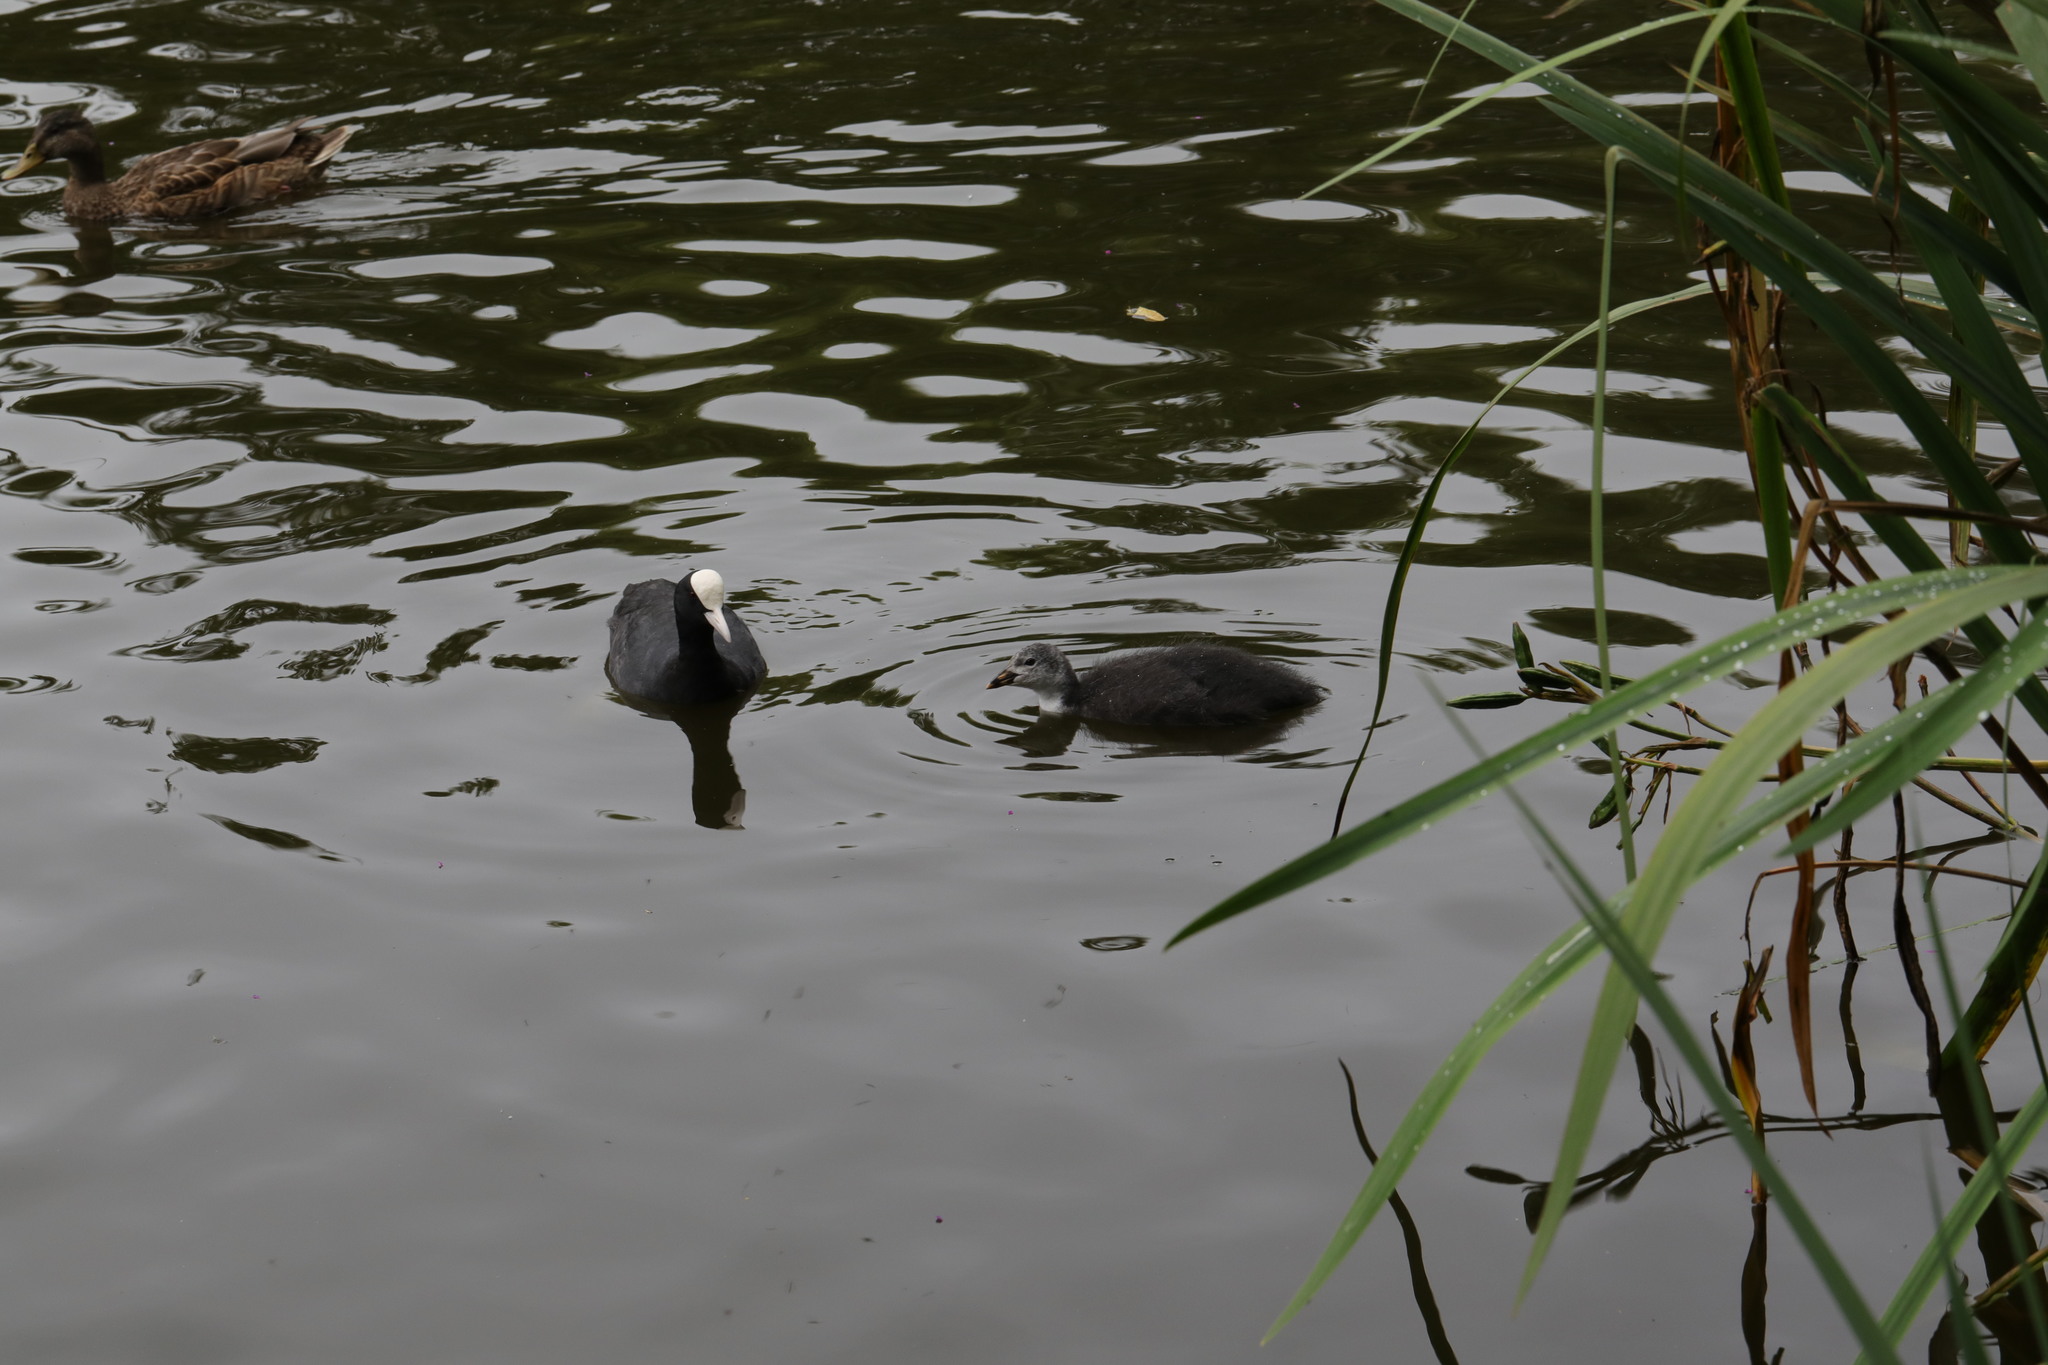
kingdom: Animalia
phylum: Chordata
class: Aves
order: Gruiformes
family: Rallidae
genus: Fulica
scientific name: Fulica atra
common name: Eurasian coot
